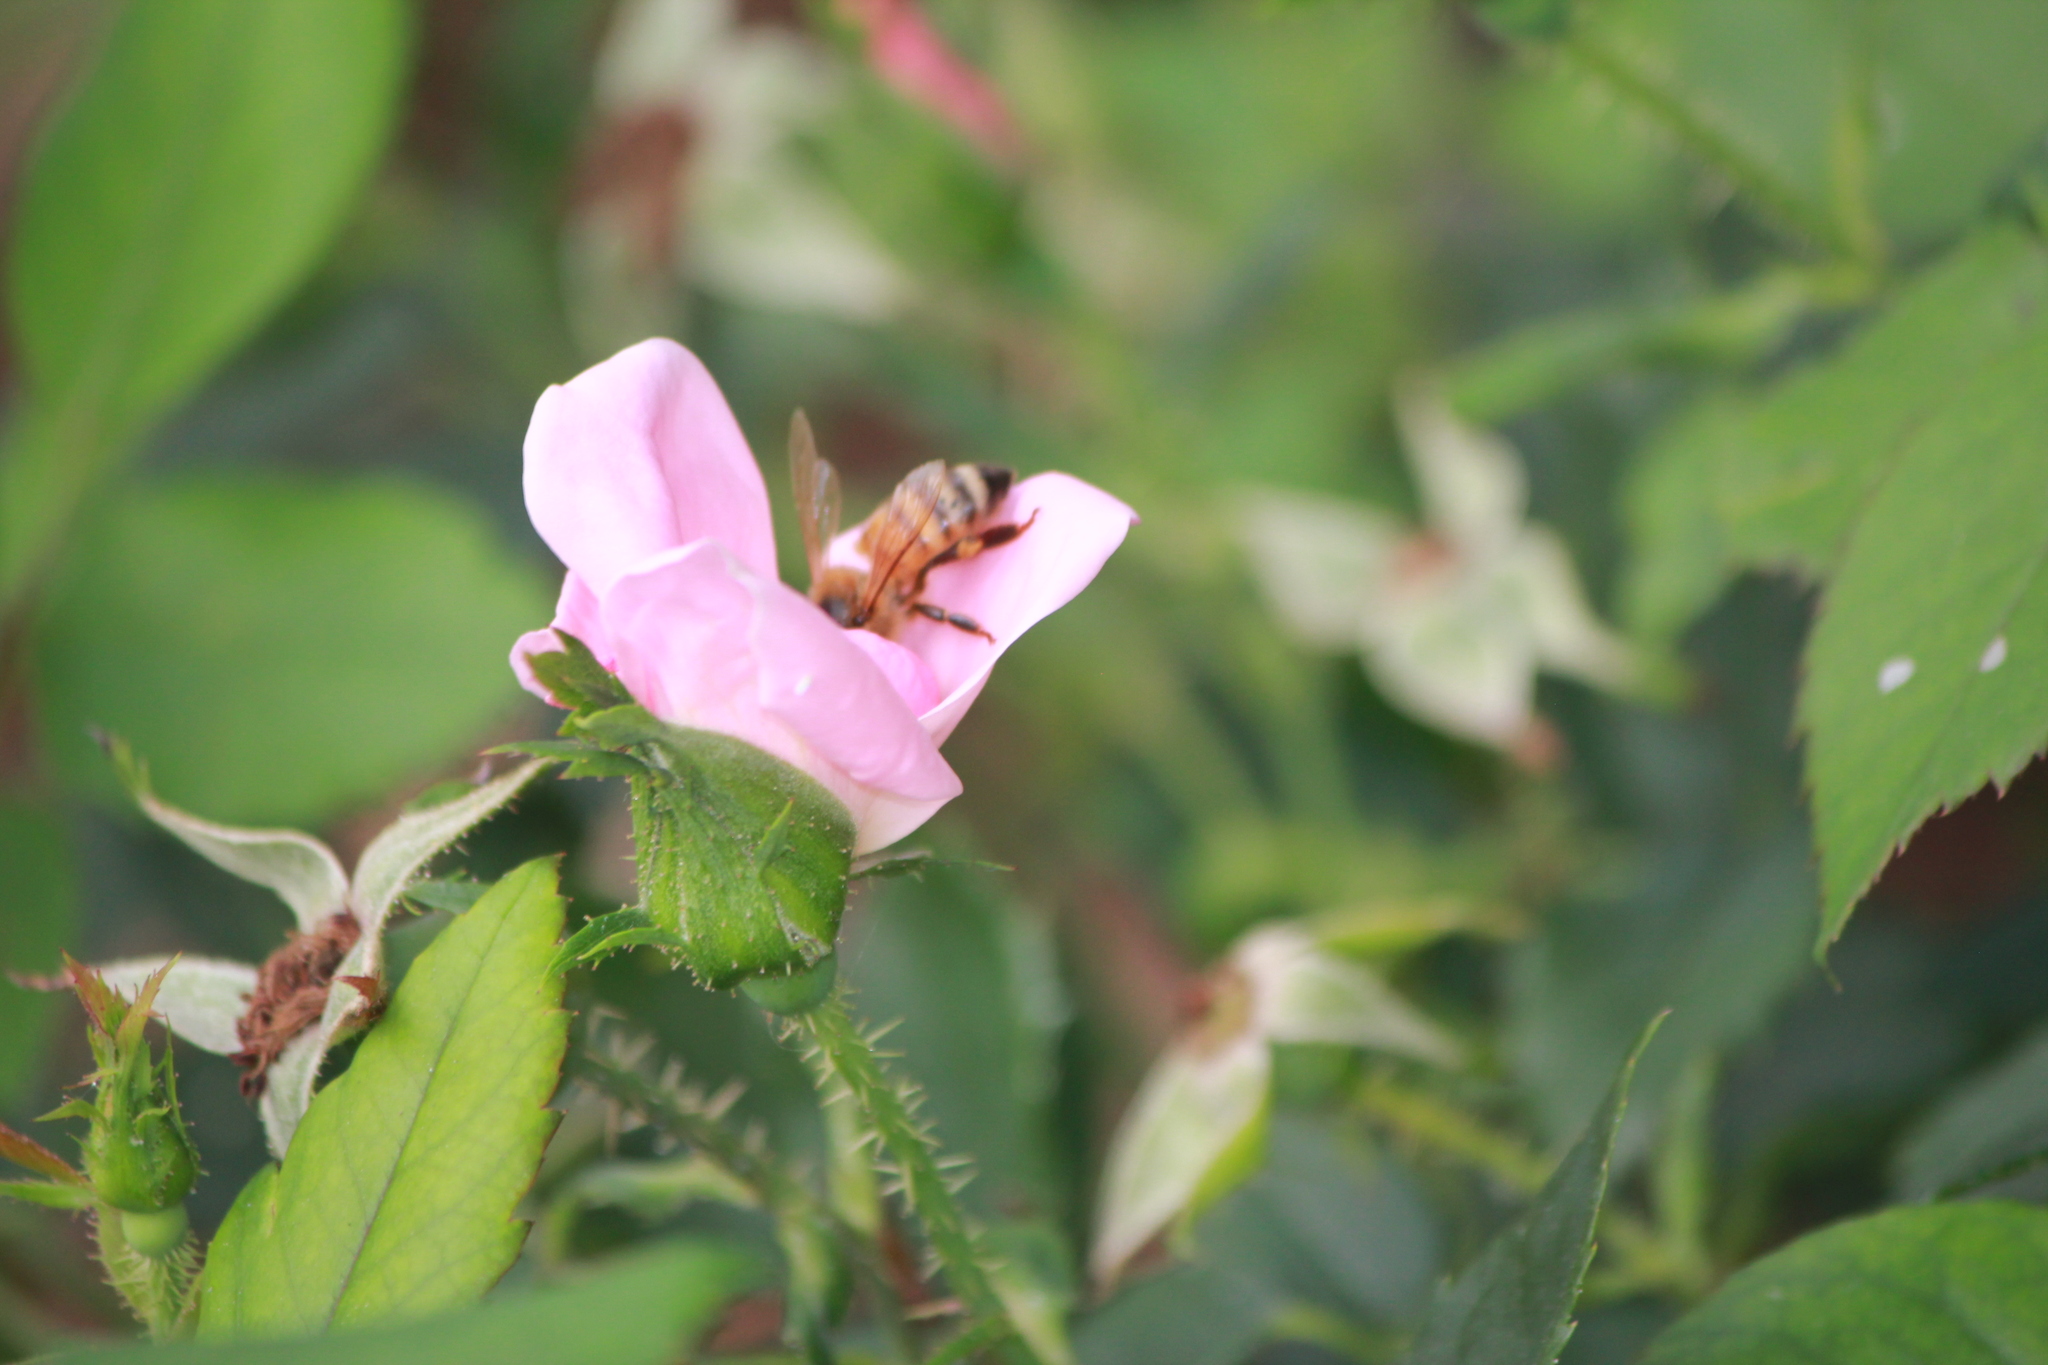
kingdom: Animalia
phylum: Arthropoda
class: Insecta
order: Hymenoptera
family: Apidae
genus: Apis
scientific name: Apis mellifera
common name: Honey bee
